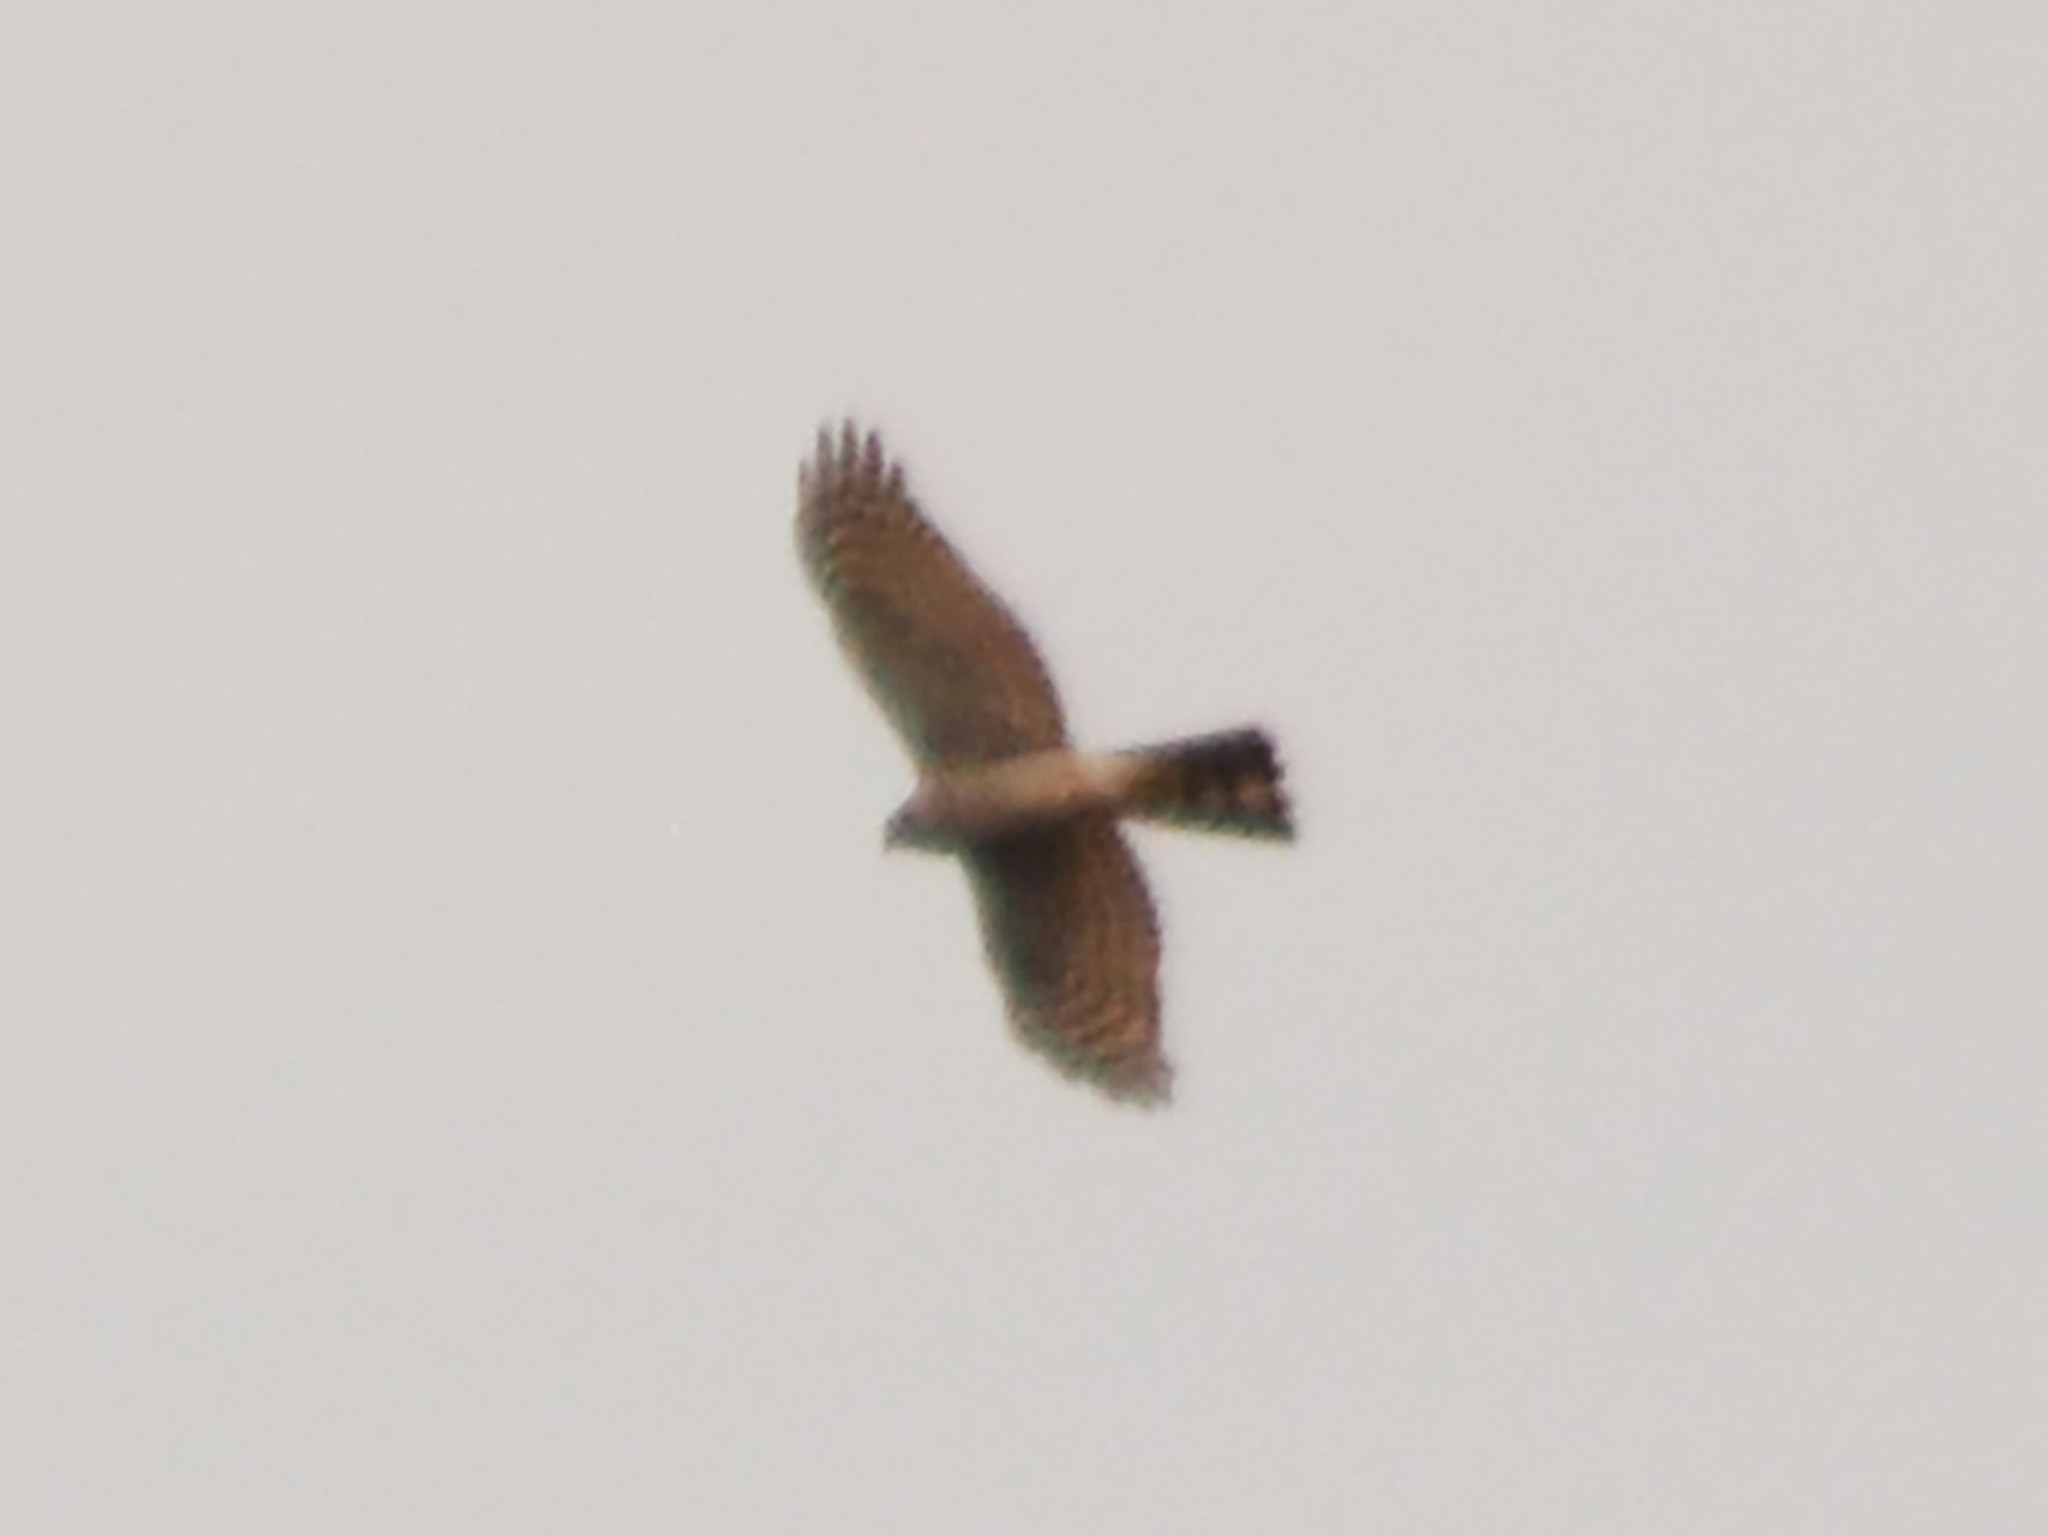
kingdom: Animalia
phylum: Chordata
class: Aves
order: Accipitriformes
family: Accipitridae
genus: Accipiter
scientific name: Accipiter nisus
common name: Eurasian sparrowhawk
